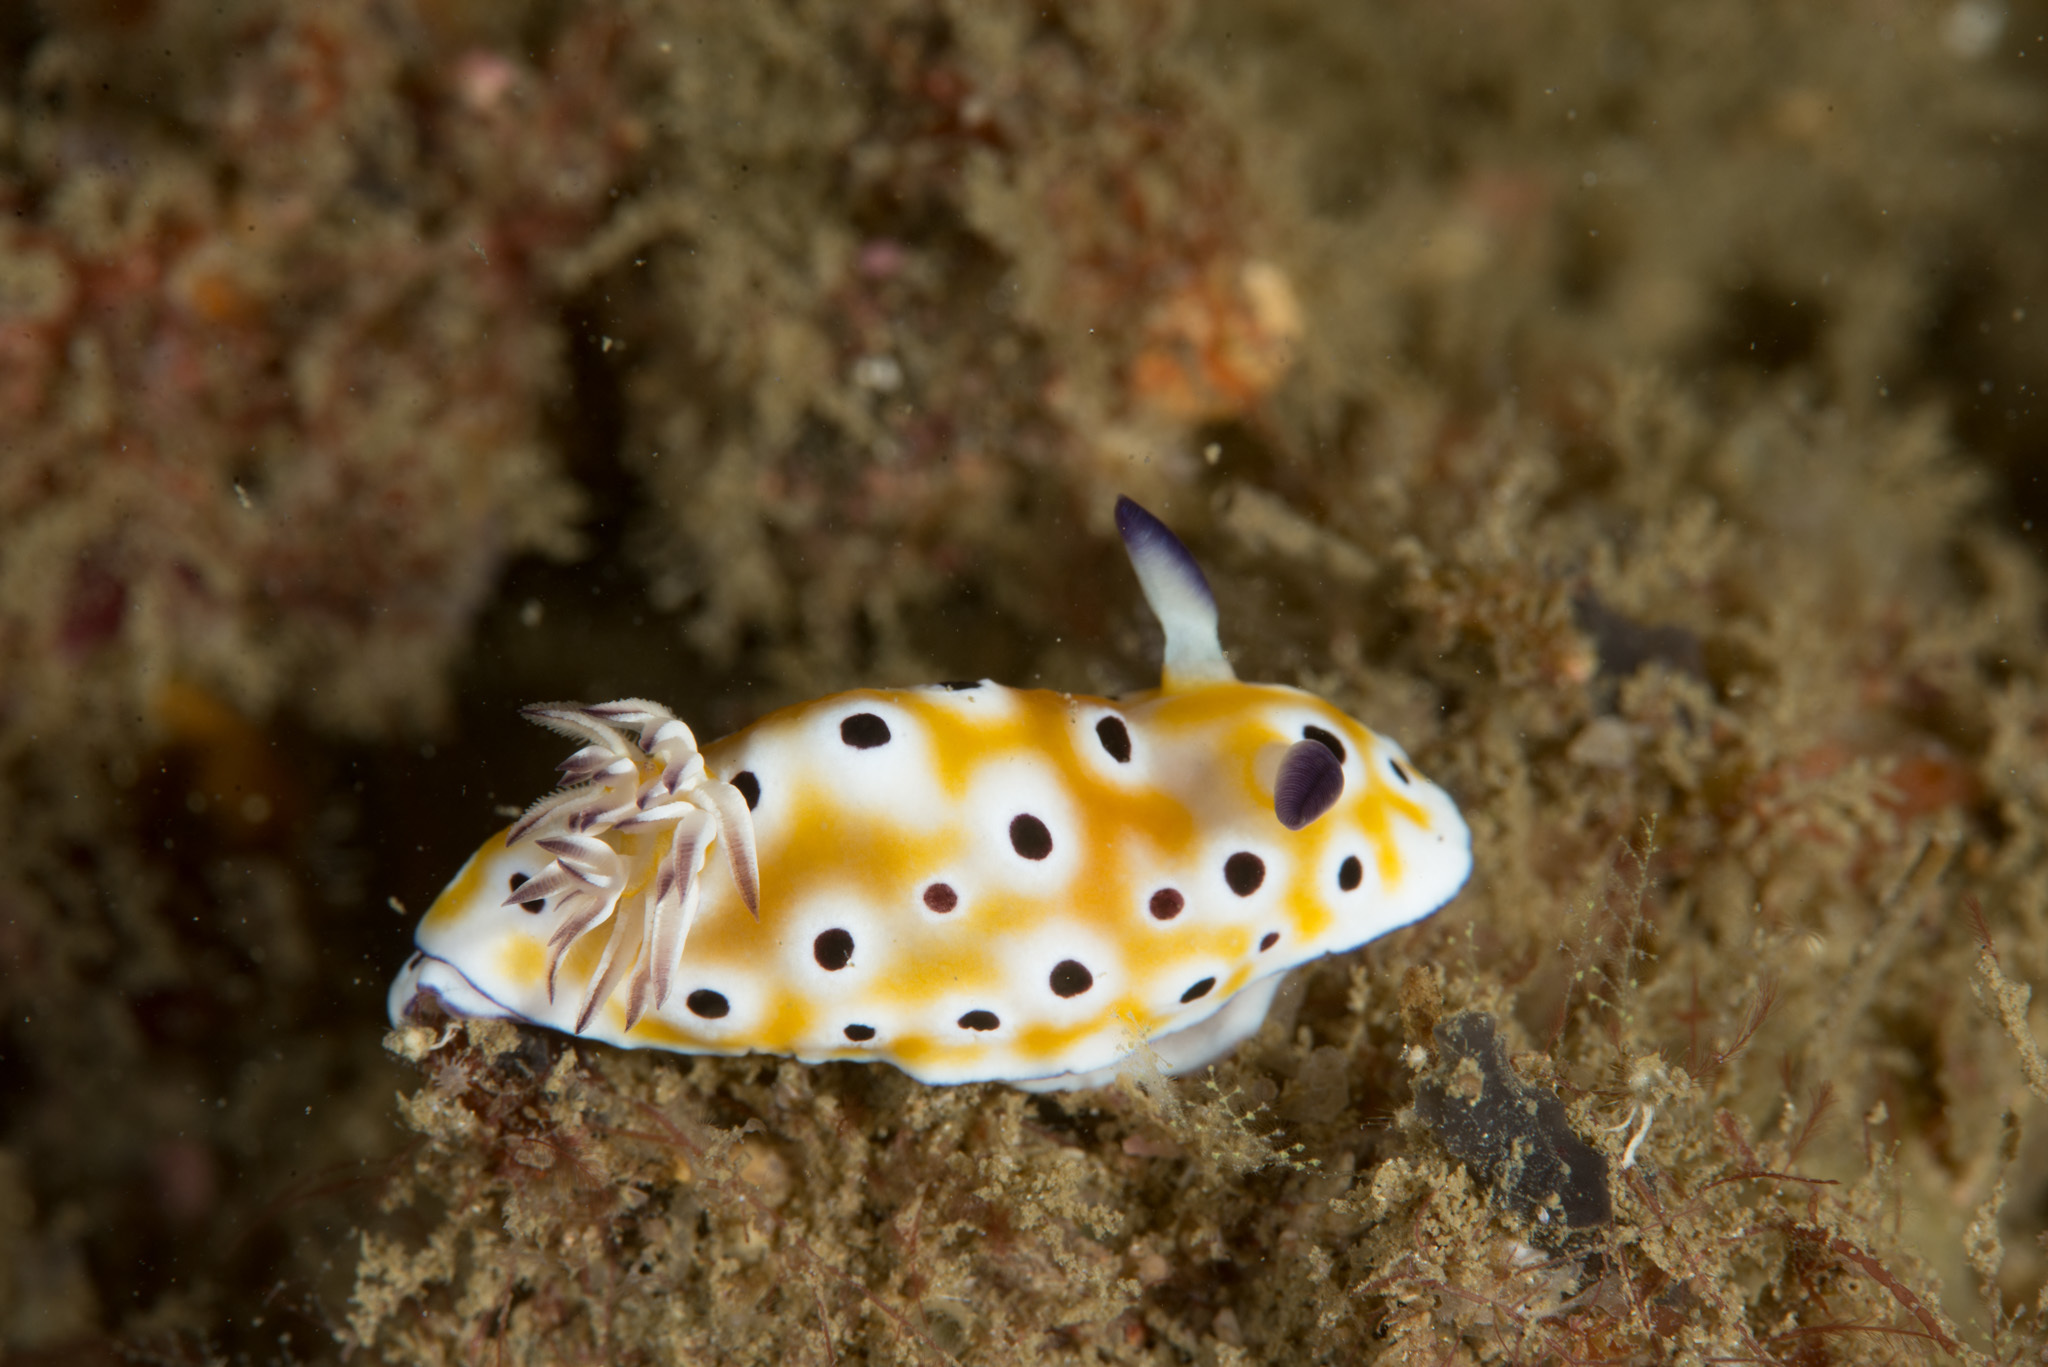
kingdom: Animalia
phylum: Mollusca
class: Gastropoda
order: Nudibranchia
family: Chromodorididae
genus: Goniobranchus
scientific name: Goniobranchus cavae
